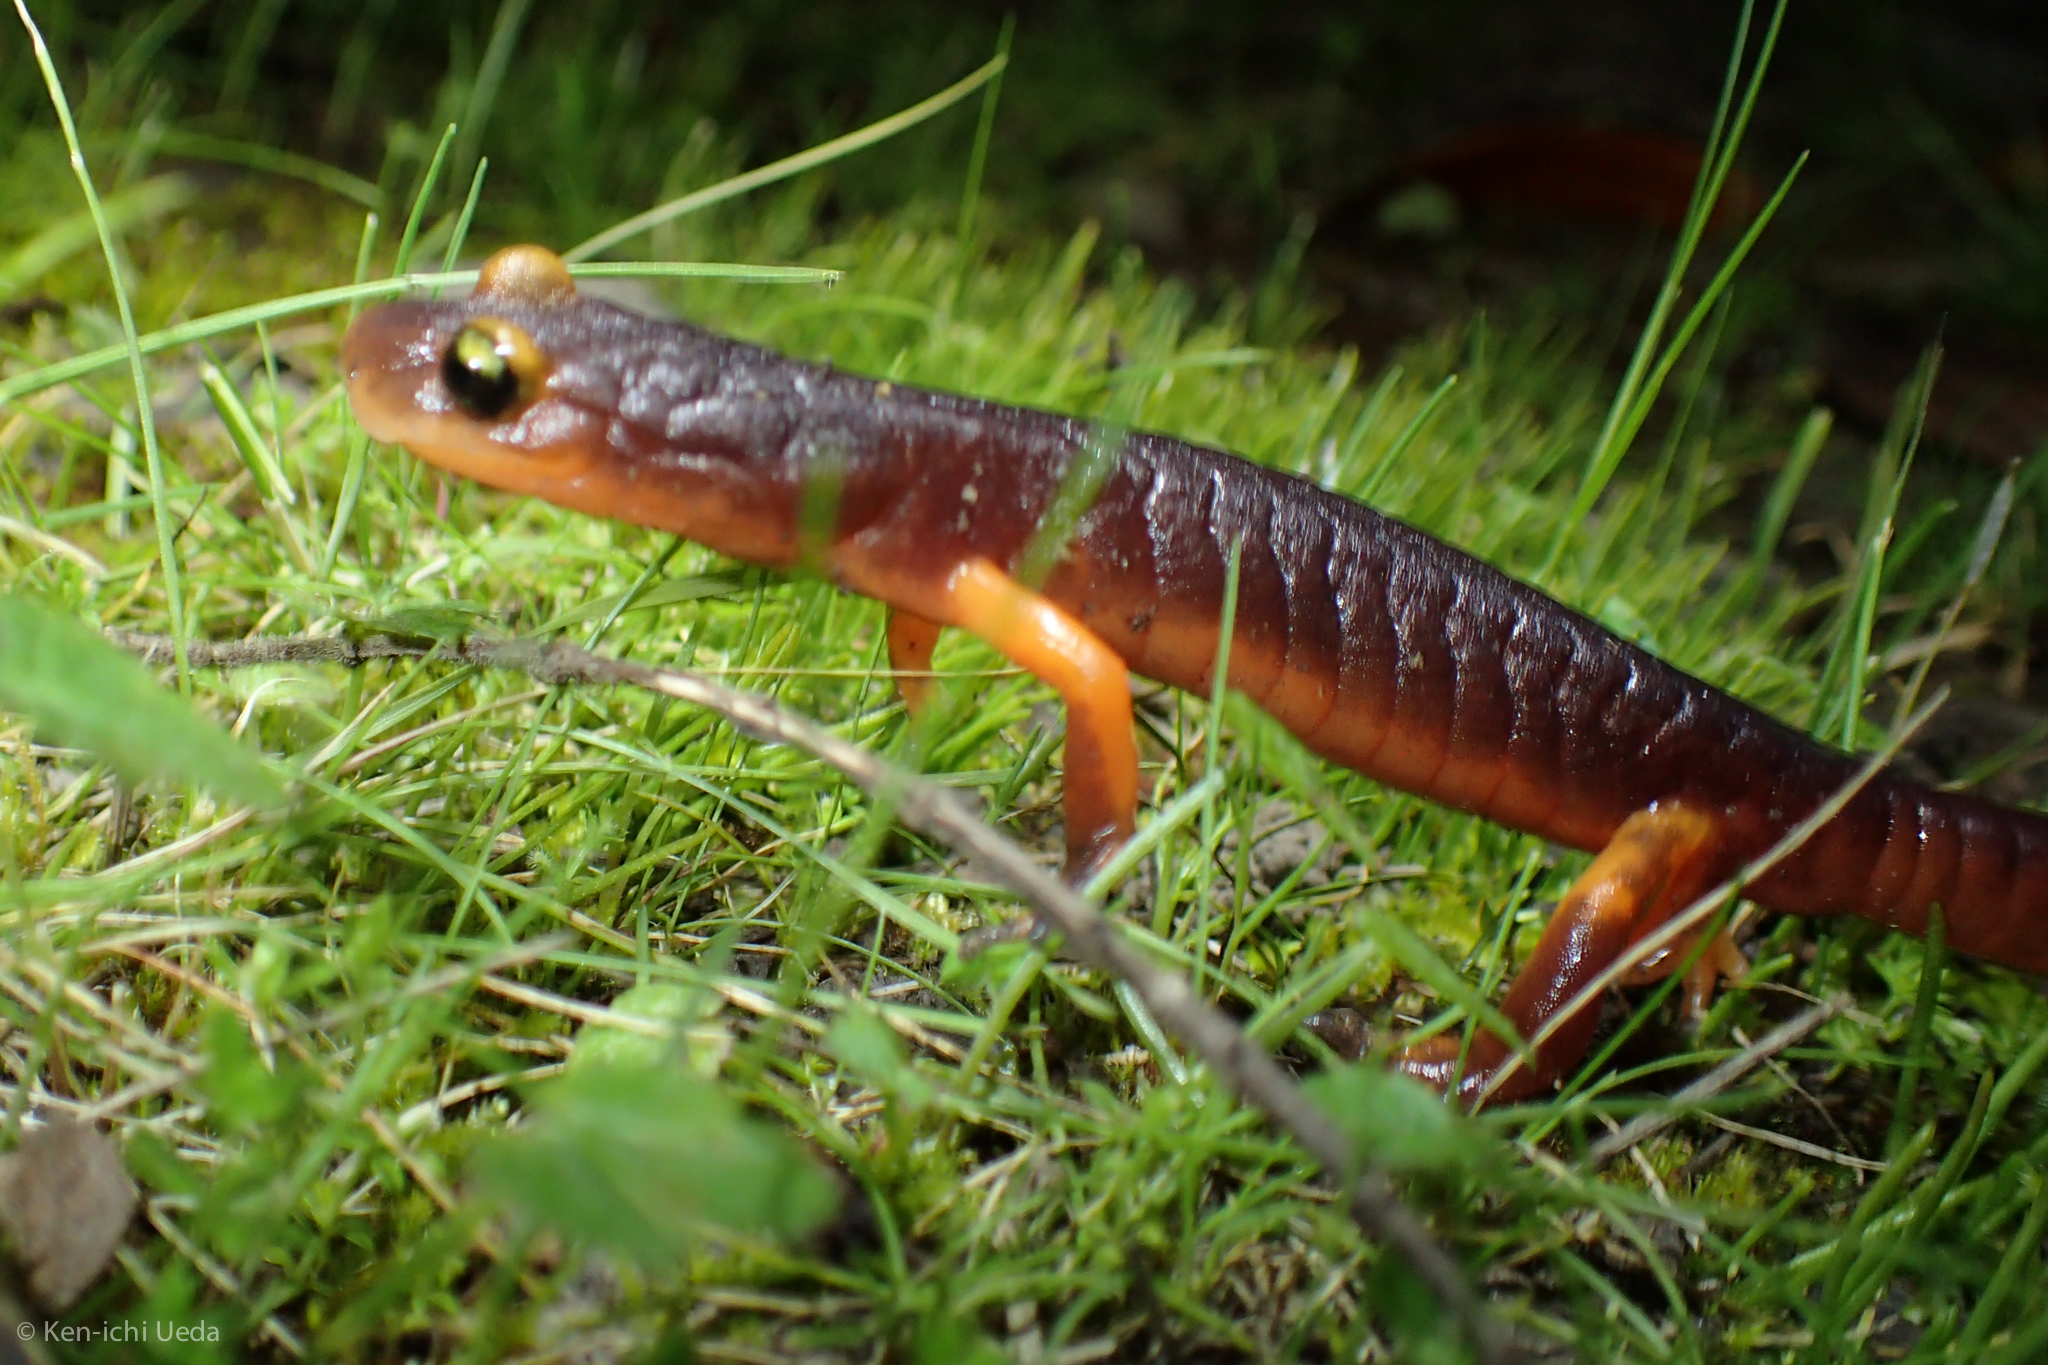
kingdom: Animalia
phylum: Chordata
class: Amphibia
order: Caudata
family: Plethodontidae
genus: Ensatina
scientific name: Ensatina eschscholtzii
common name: Ensatina
